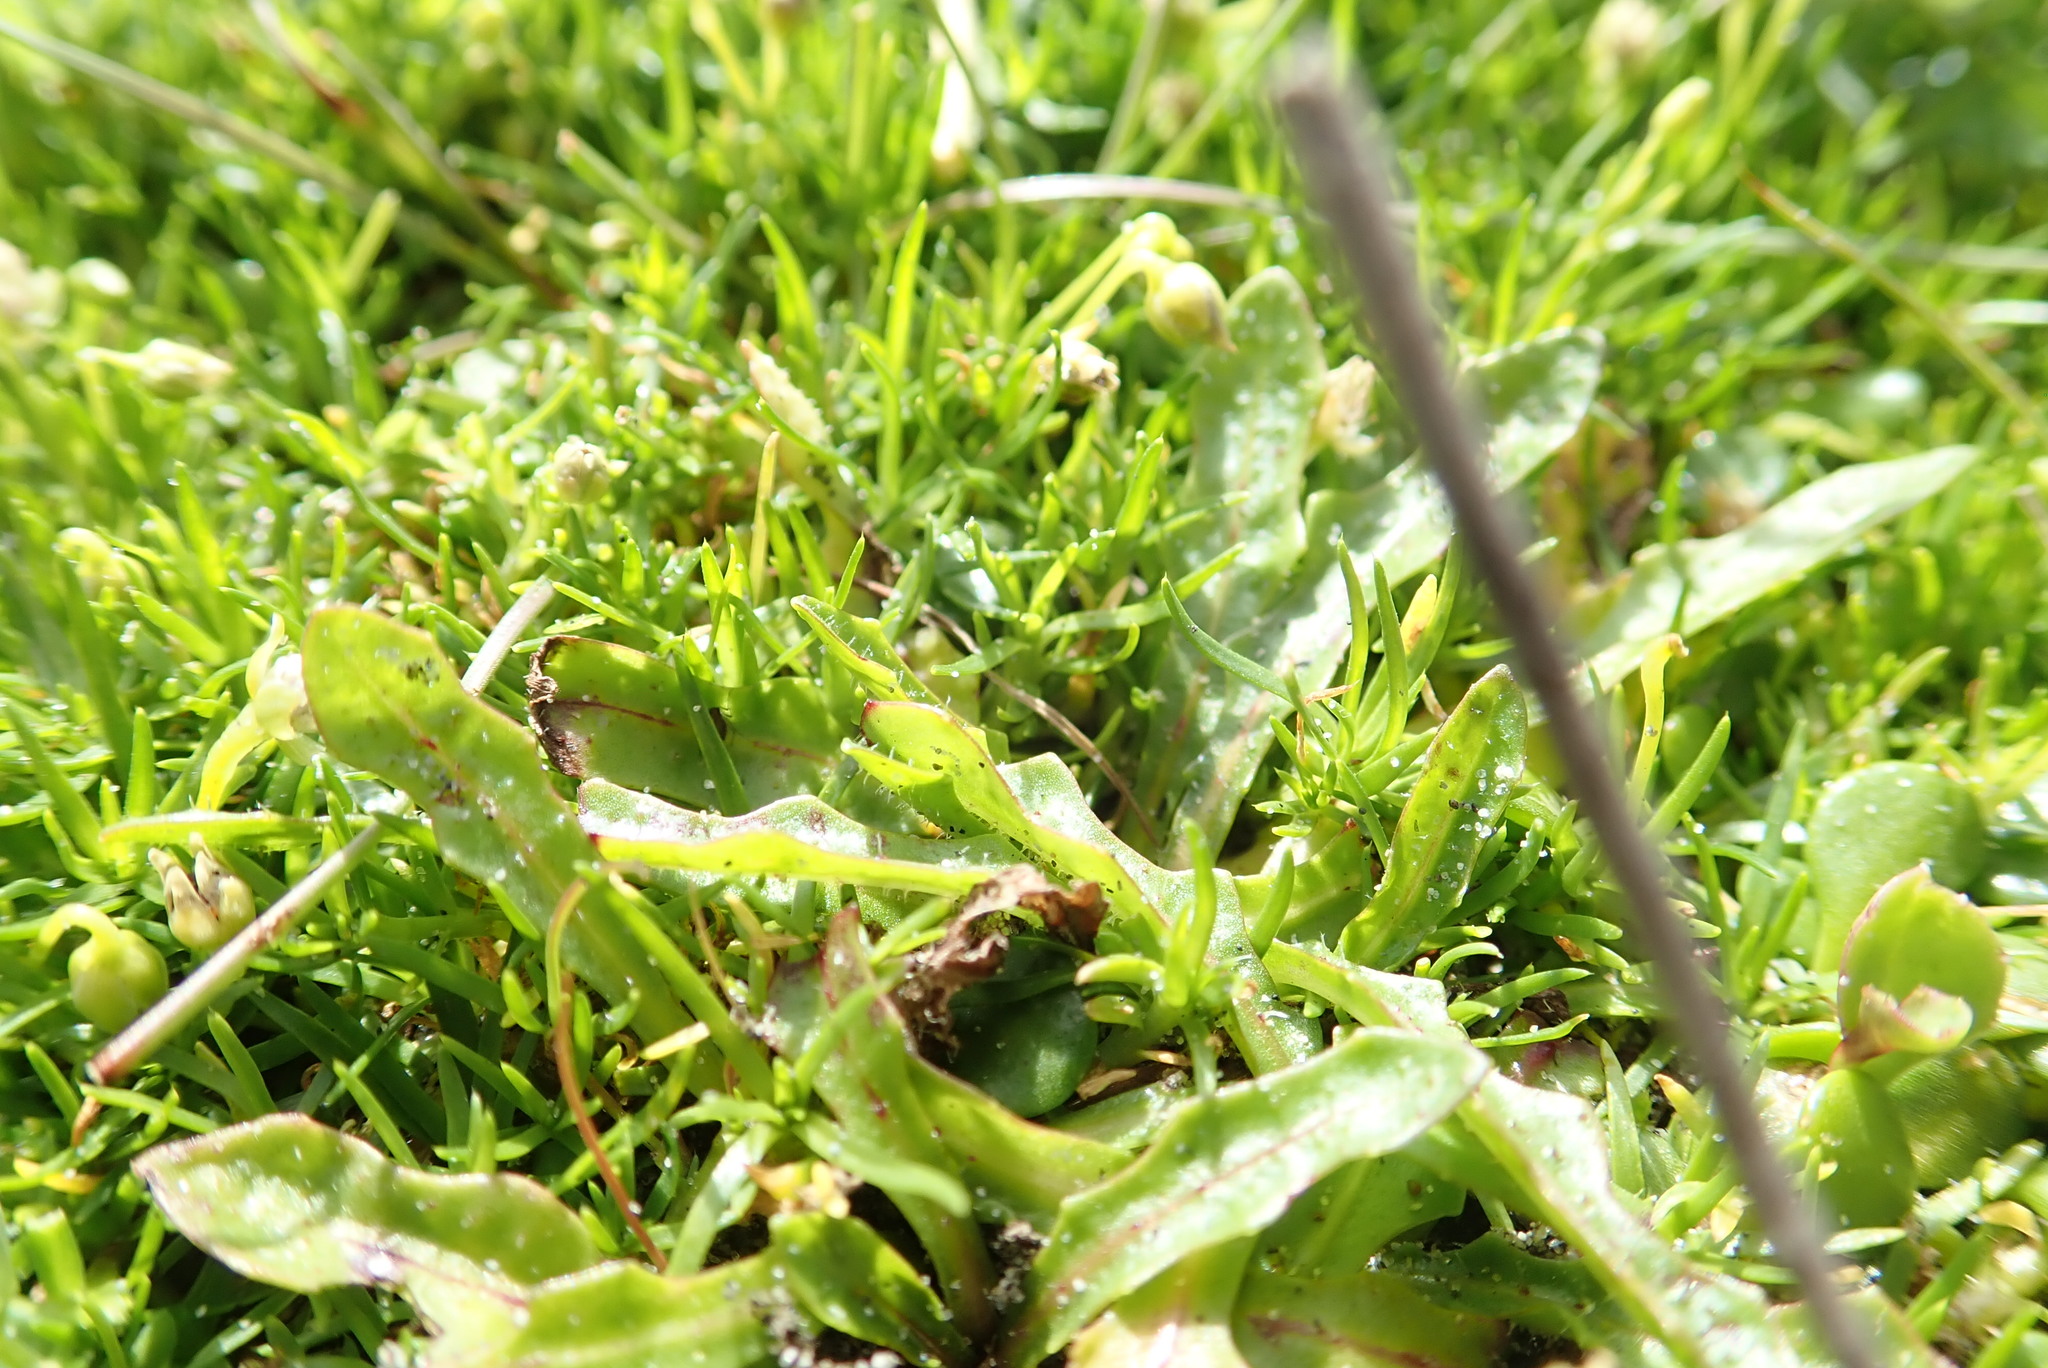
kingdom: Plantae
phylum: Tracheophyta
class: Magnoliopsida
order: Asterales
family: Goodeniaceae
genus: Goodenia
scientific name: Goodenia heenanii
